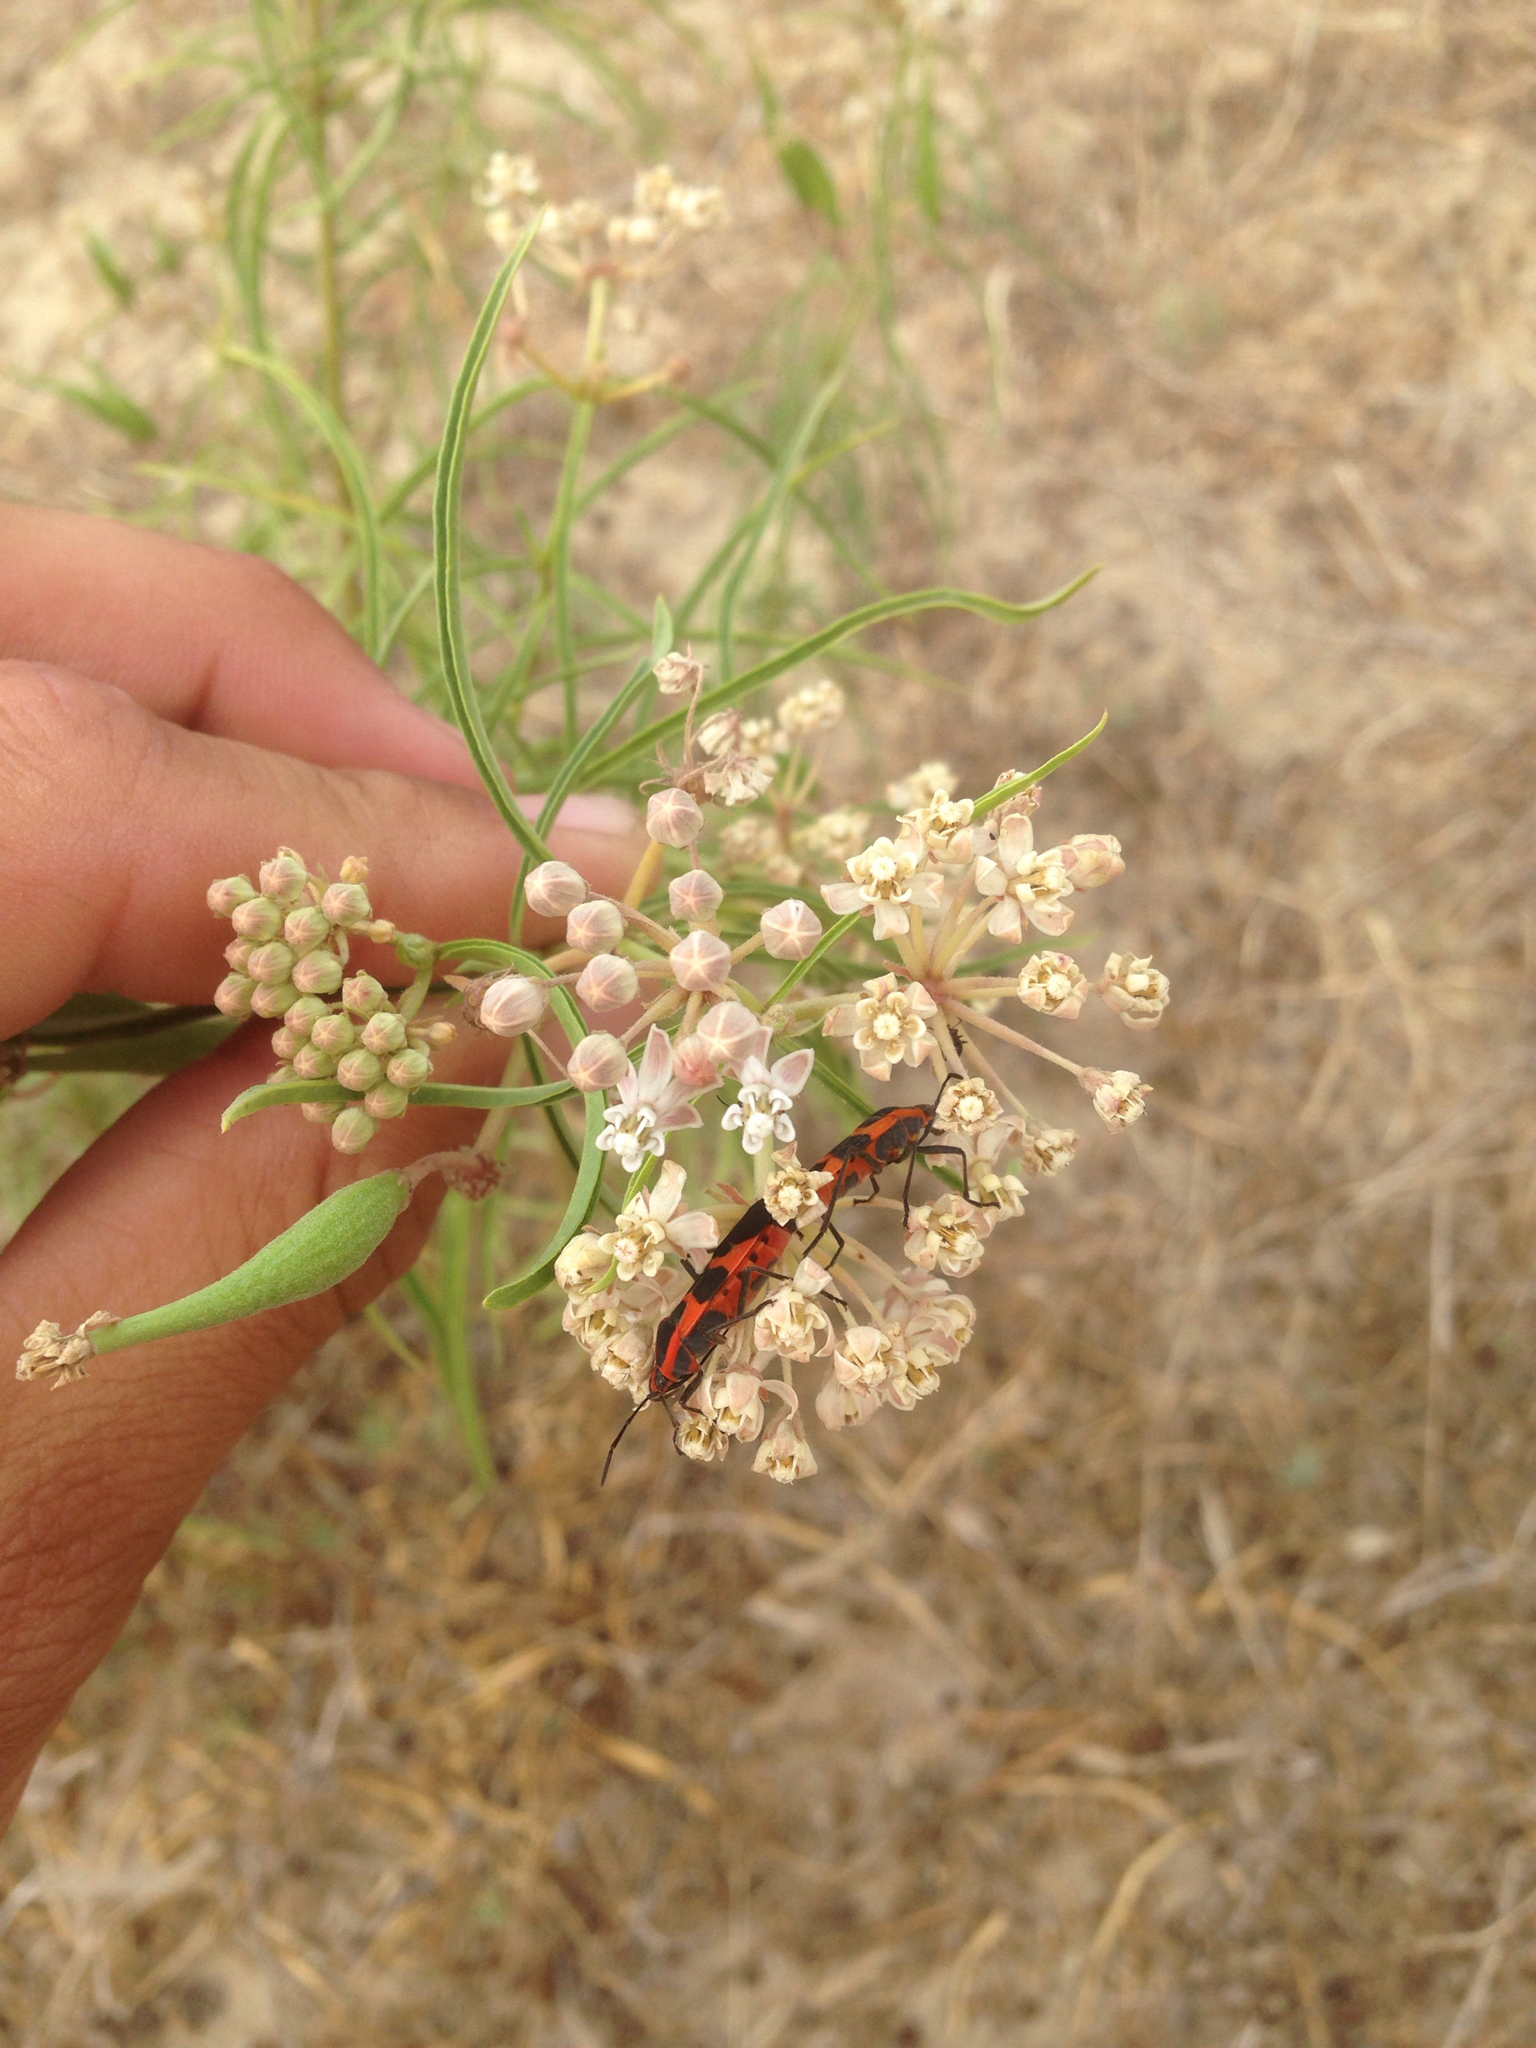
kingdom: Animalia
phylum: Arthropoda
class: Insecta
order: Hemiptera
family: Lygaeidae
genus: Oncopeltus
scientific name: Oncopeltus fasciatus
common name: Large milkweed bug
